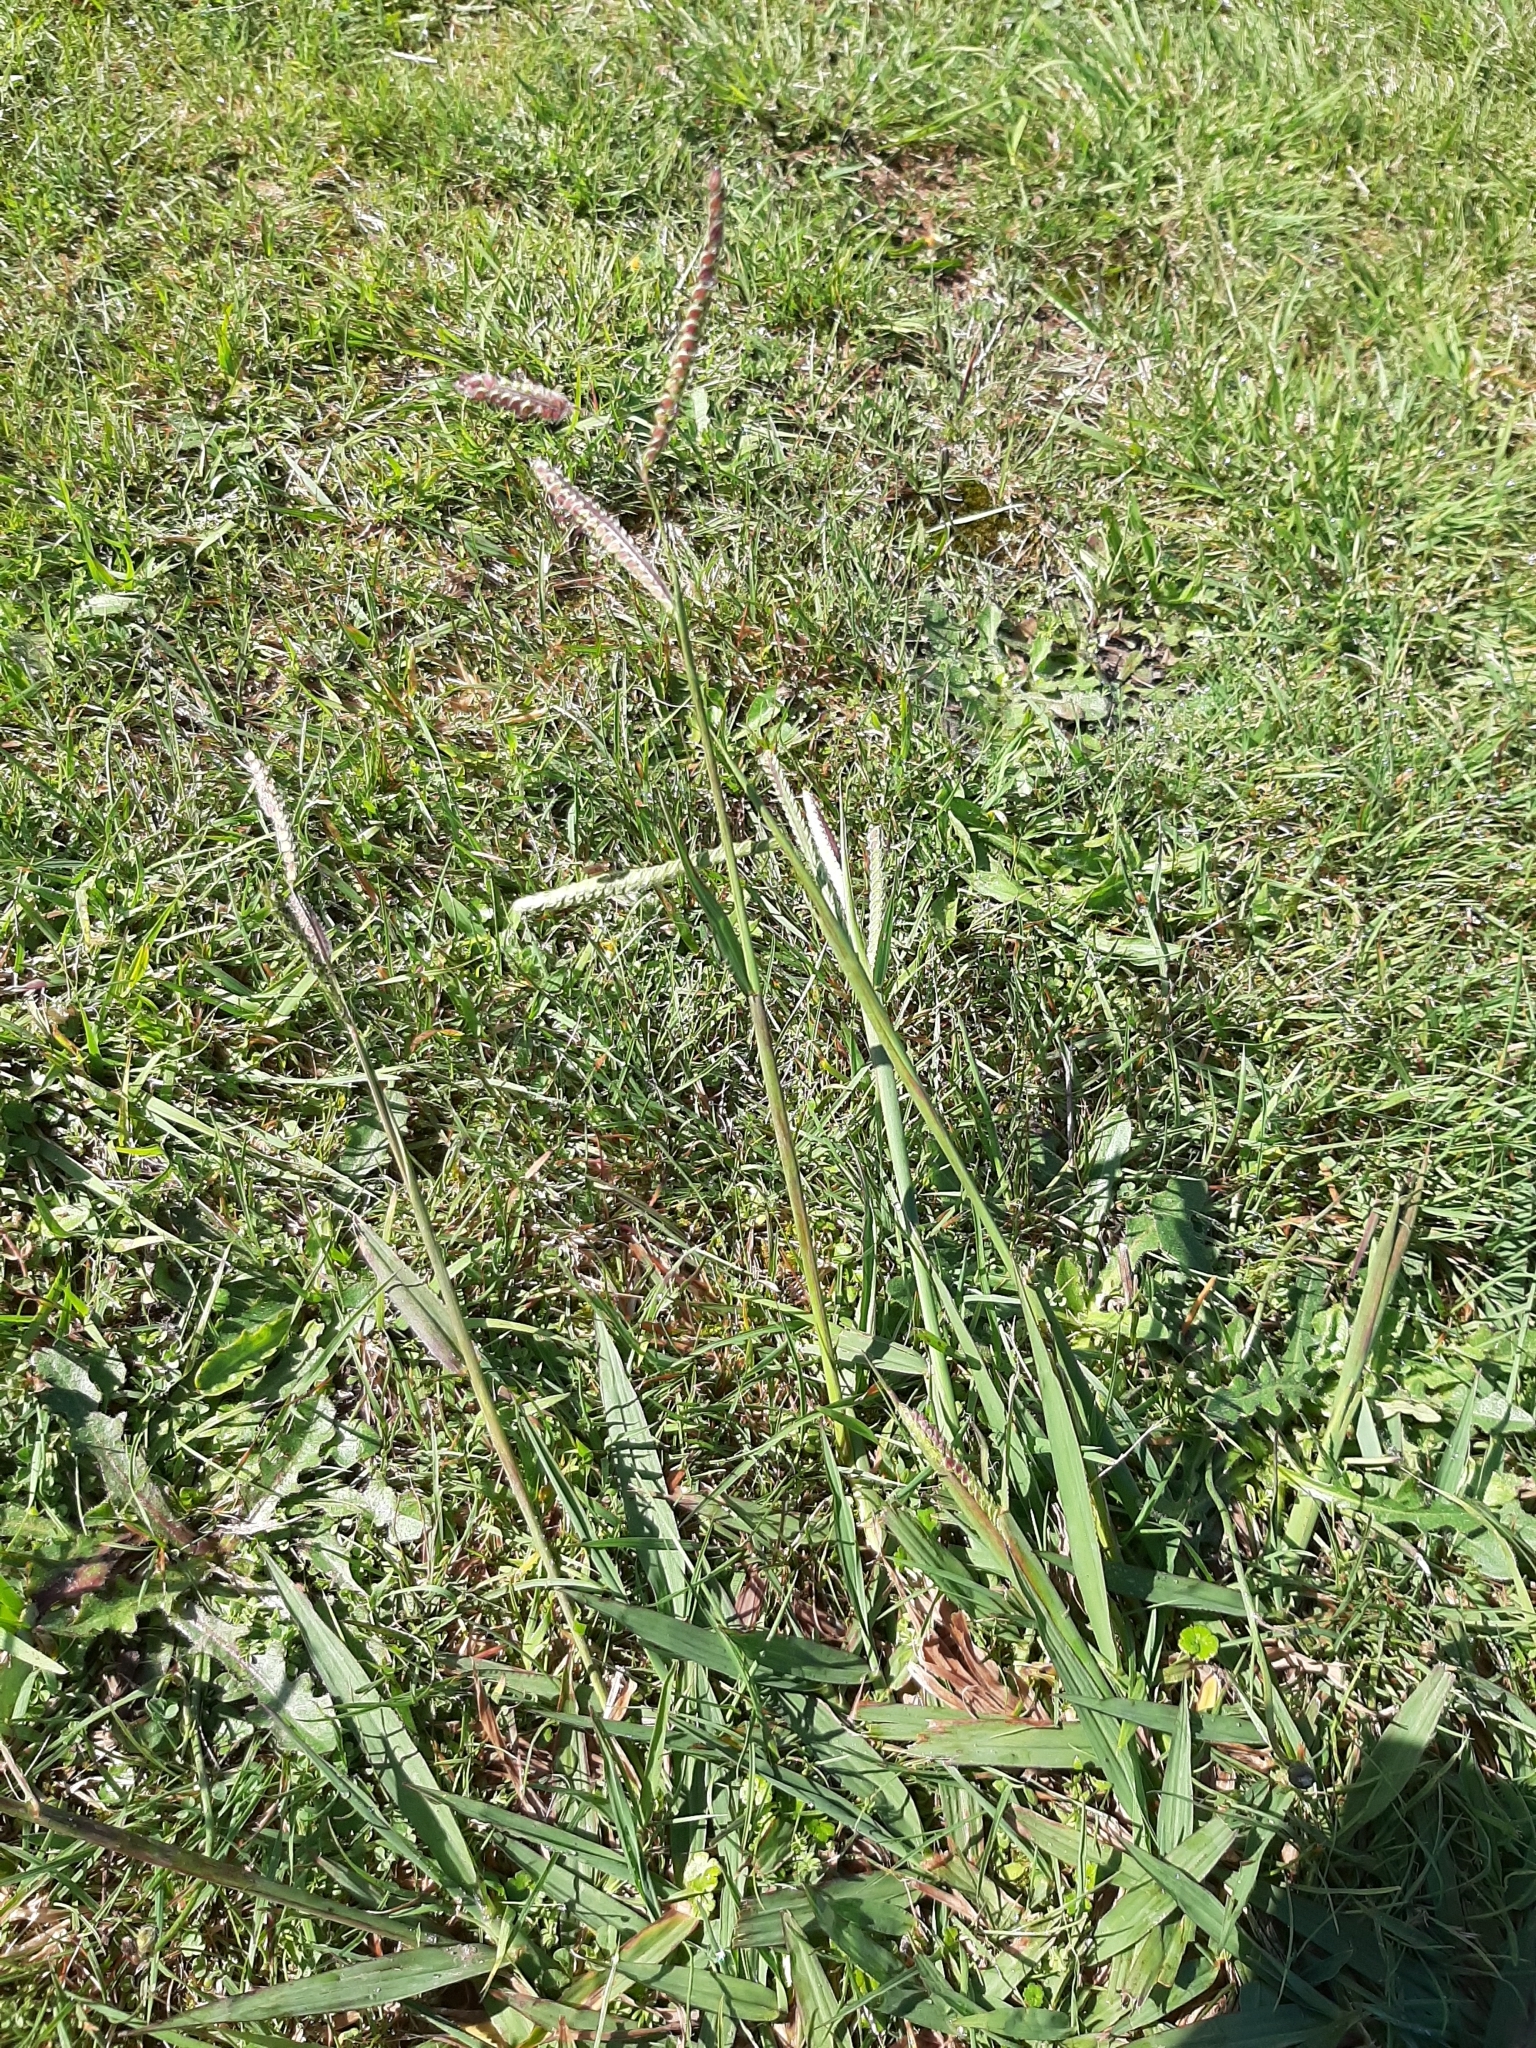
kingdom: Plantae
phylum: Tracheophyta
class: Liliopsida
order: Poales
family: Poaceae
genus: Paspalum
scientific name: Paspalum dilatatum
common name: Dallisgrass
